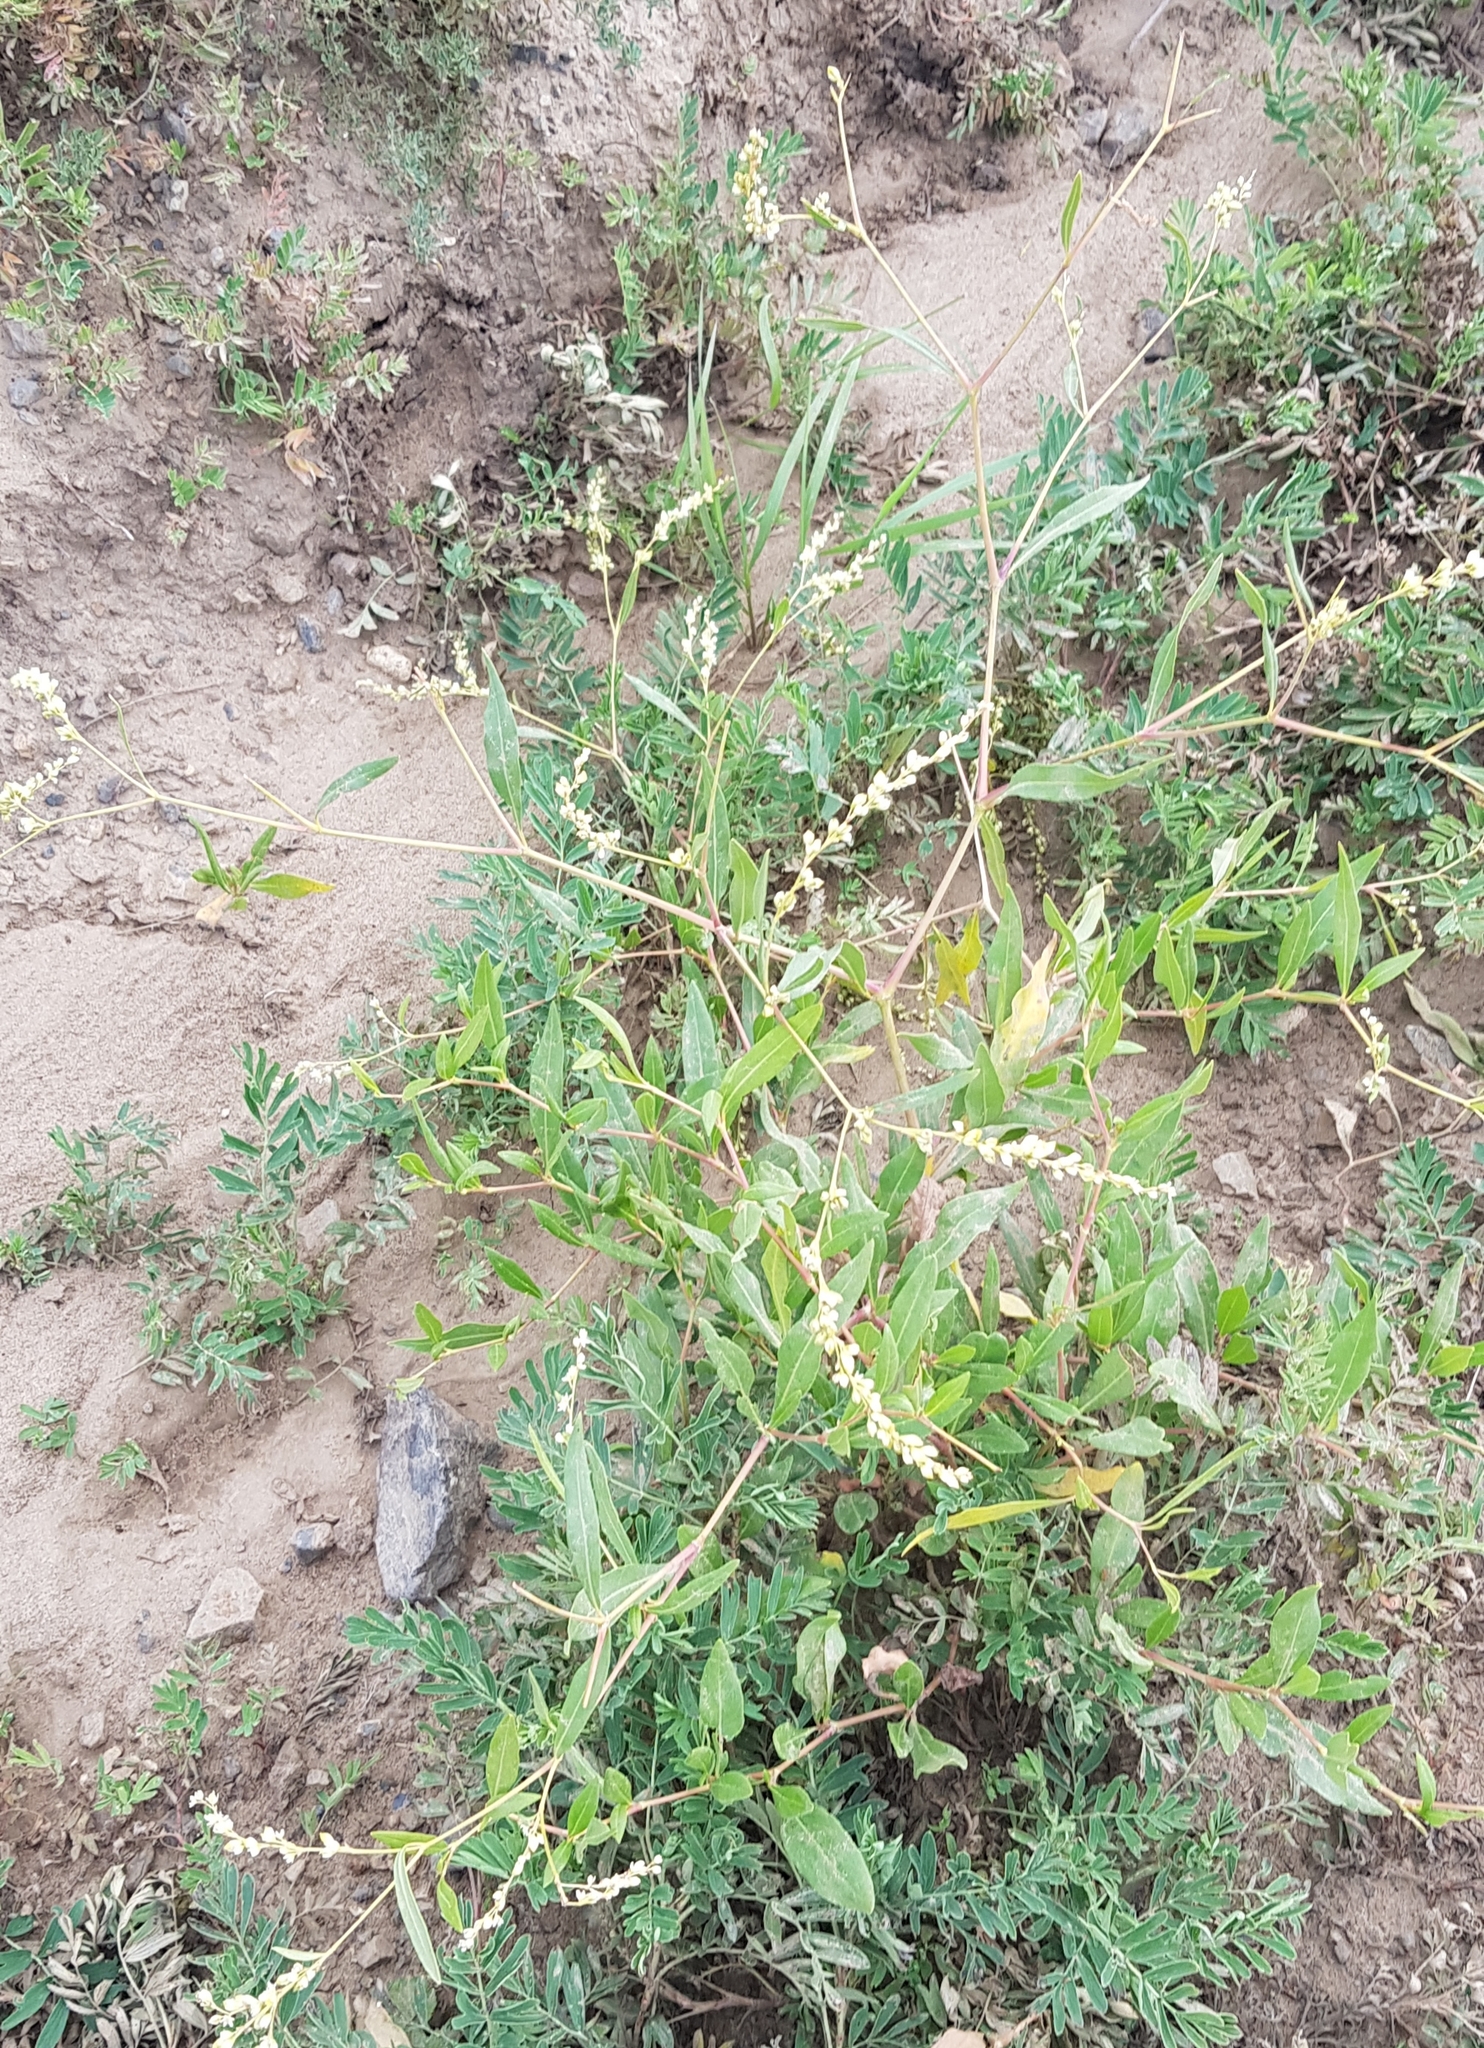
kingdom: Plantae
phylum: Tracheophyta
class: Magnoliopsida
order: Caryophyllales
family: Polygonaceae
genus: Koenigia
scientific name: Koenigia divaricata
